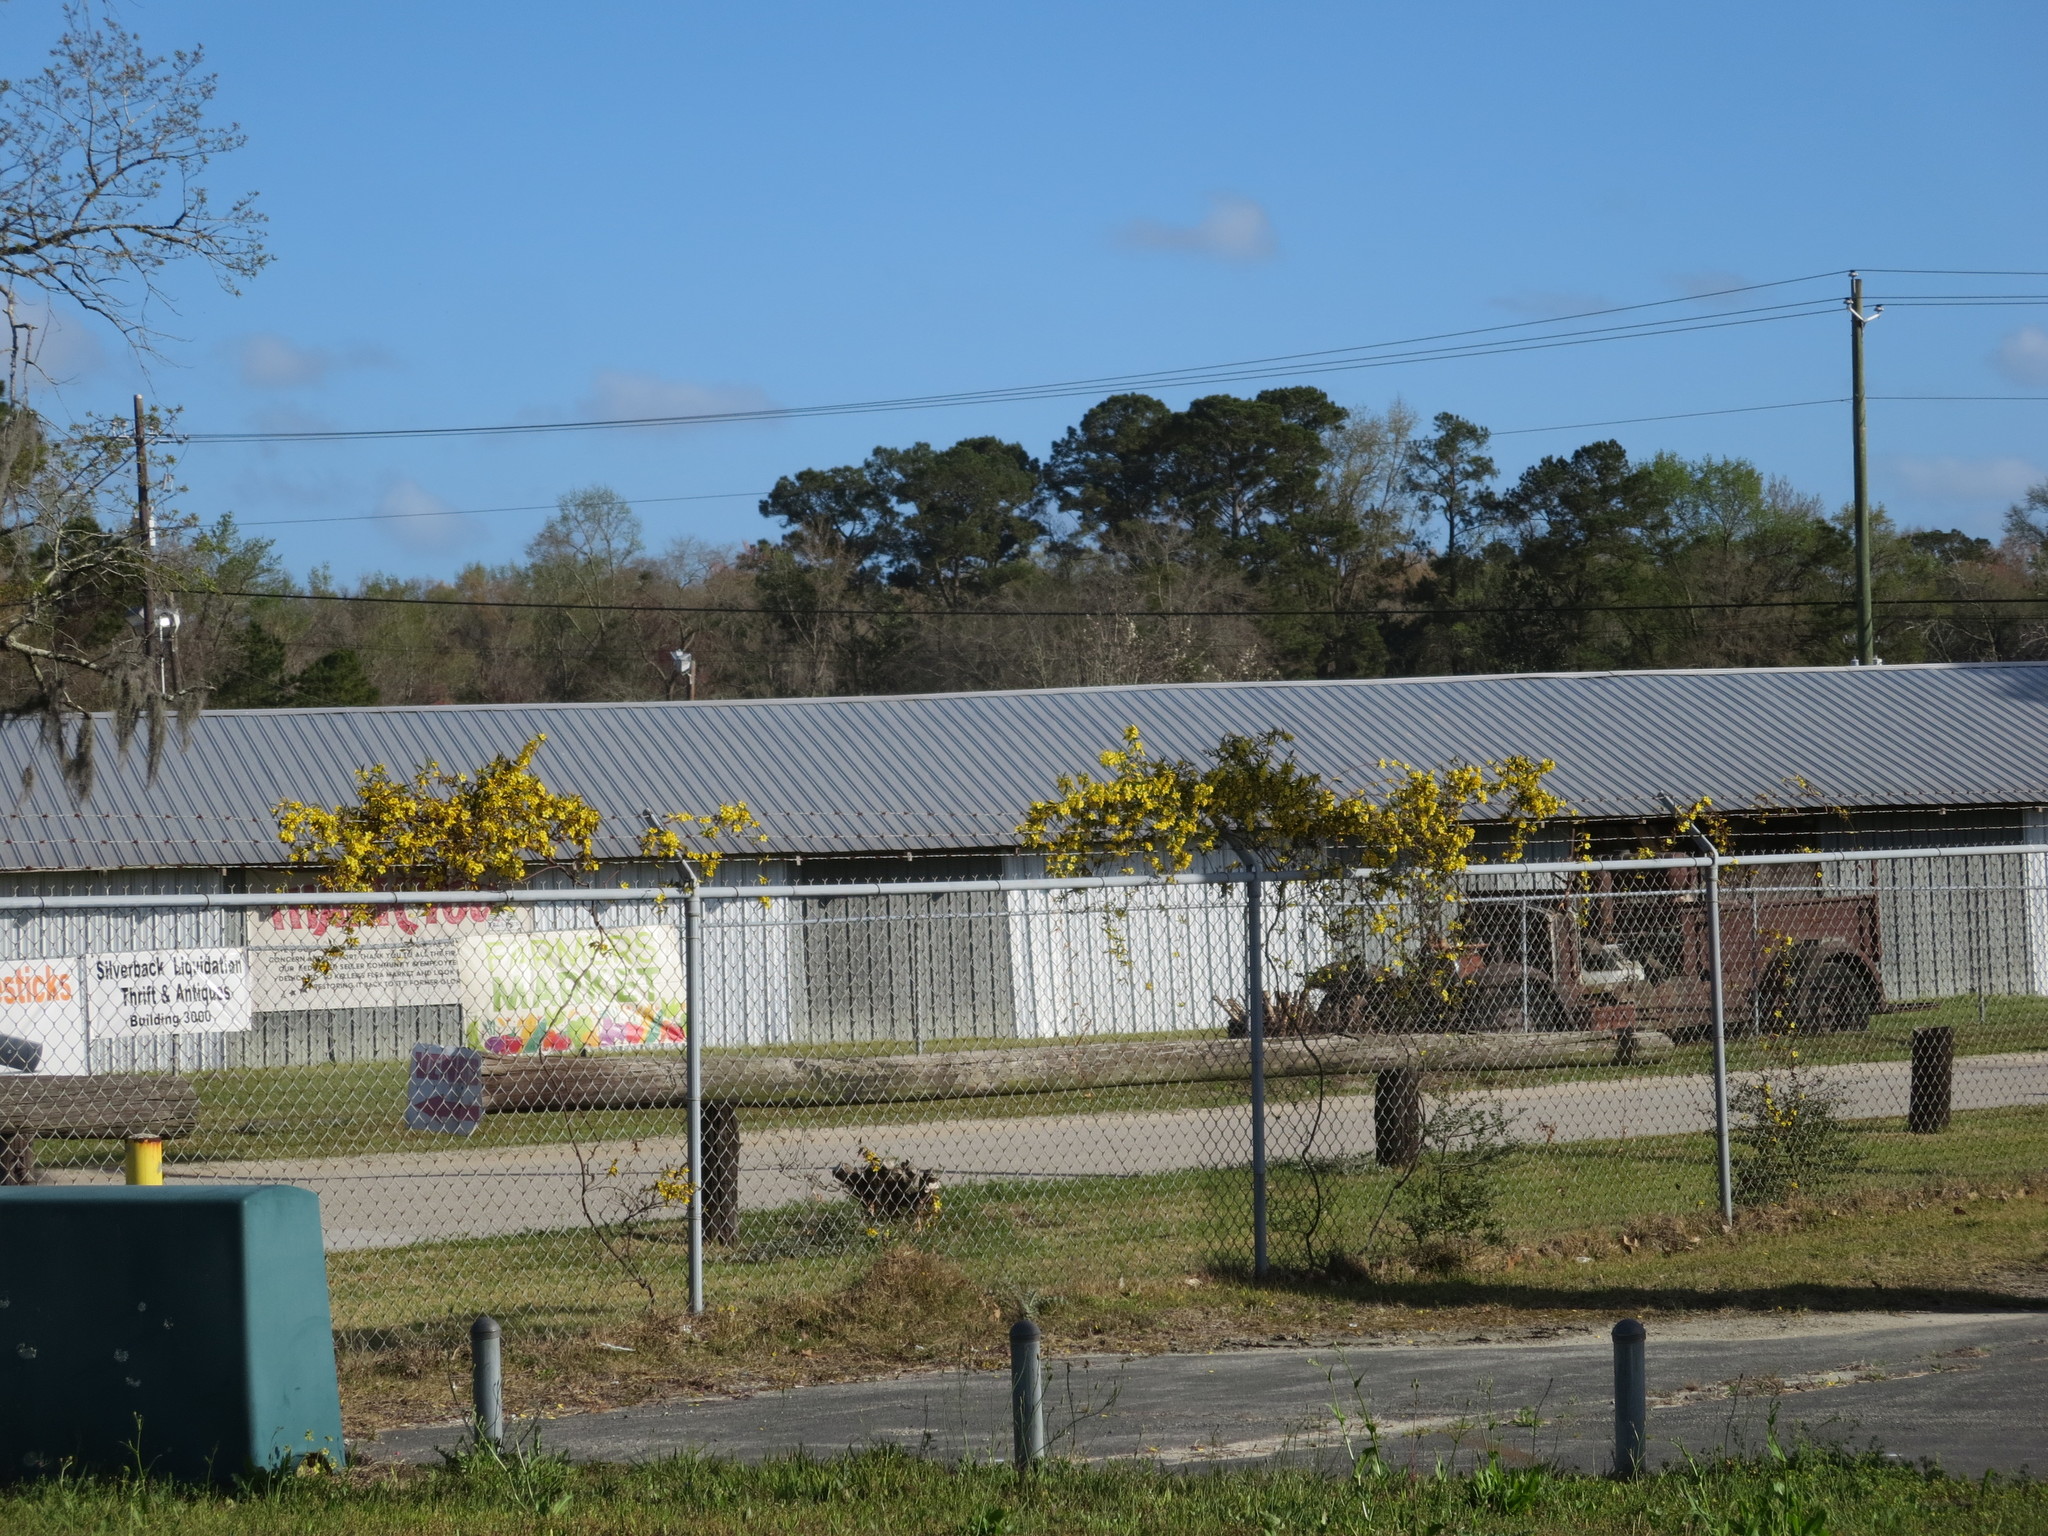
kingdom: Plantae
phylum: Tracheophyta
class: Magnoliopsida
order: Gentianales
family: Gelsemiaceae
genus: Gelsemium
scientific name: Gelsemium sempervirens
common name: Carolina-jasmine
